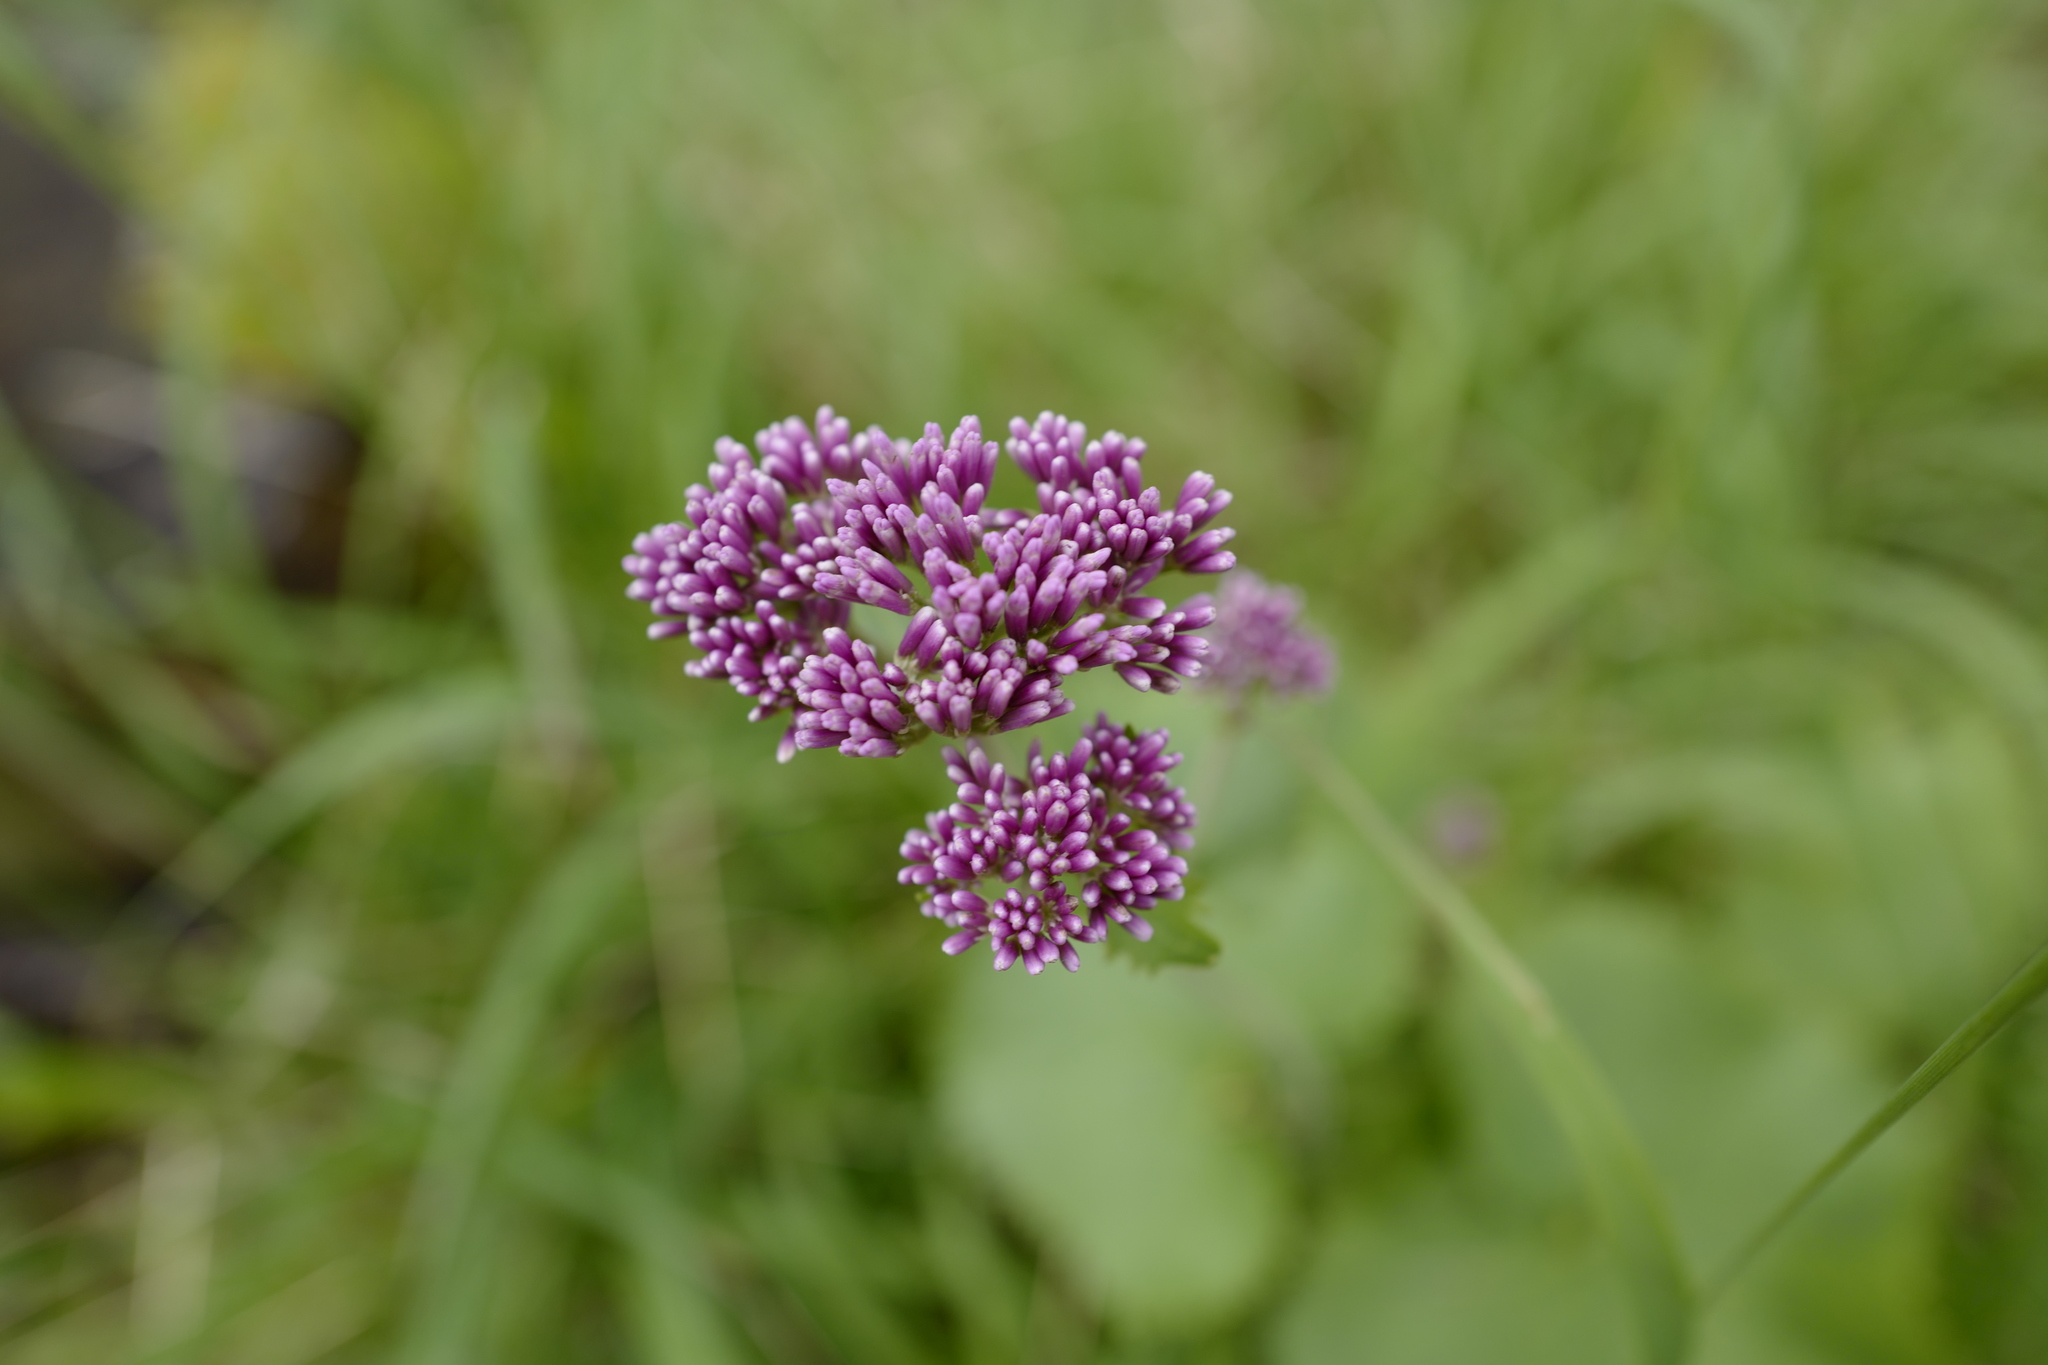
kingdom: Plantae
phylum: Tracheophyta
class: Magnoliopsida
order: Asterales
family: Asteraceae
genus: Adenostyles
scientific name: Adenostyles alliariae
